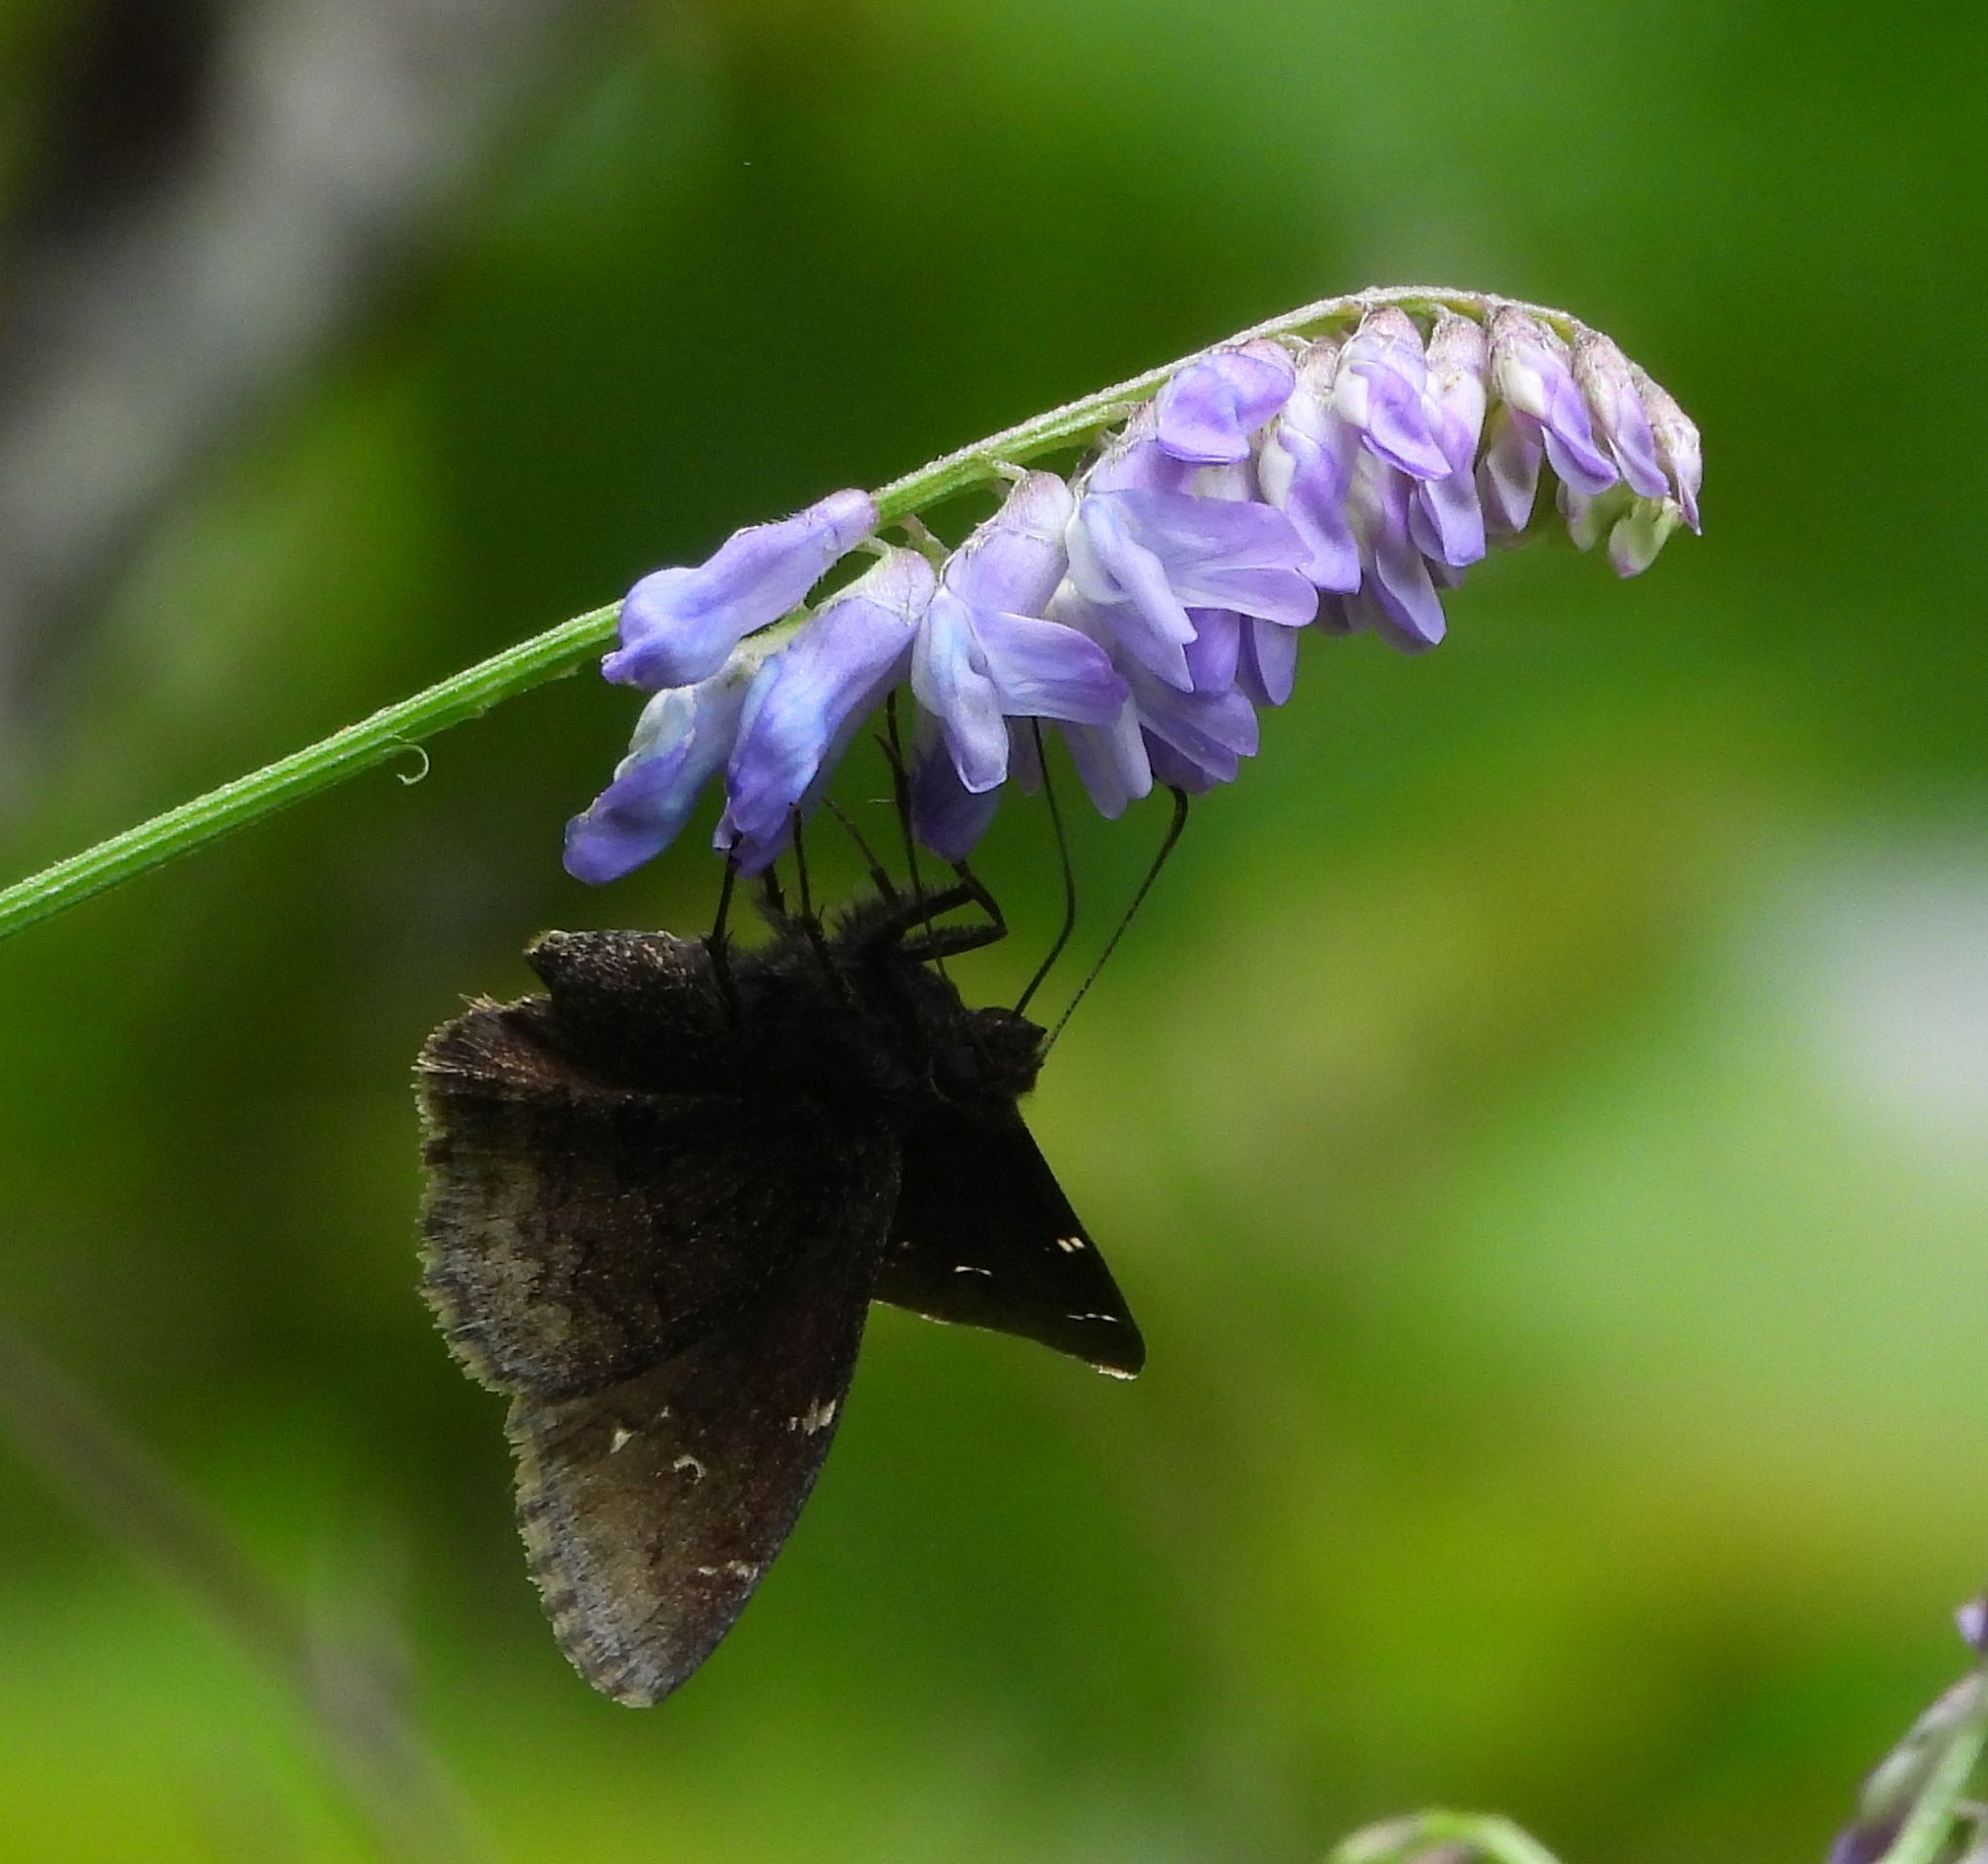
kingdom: Animalia
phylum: Arthropoda
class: Insecta
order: Lepidoptera
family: Hesperiidae
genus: Thorybes
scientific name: Thorybes pylades
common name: Northern cloudywing
